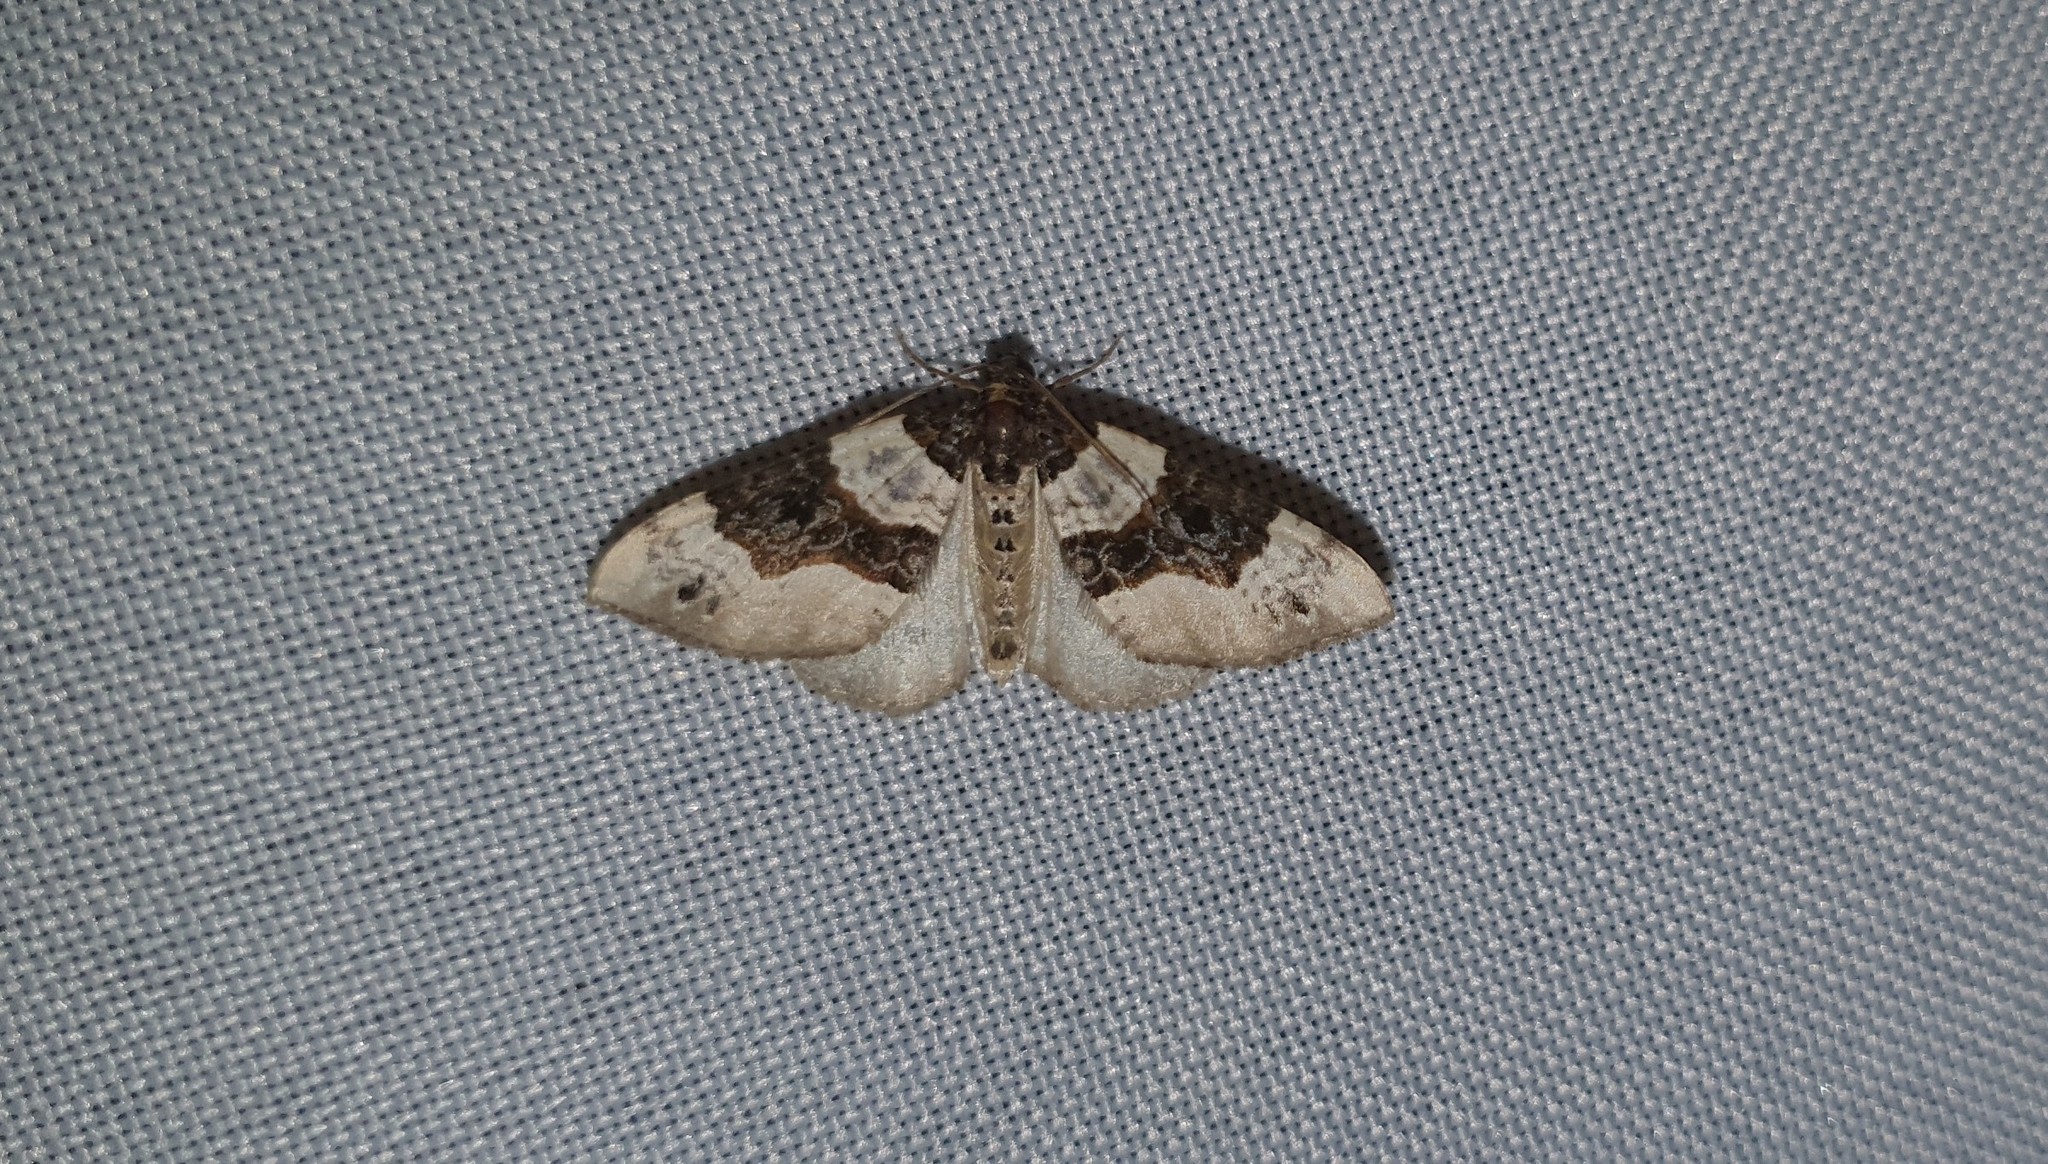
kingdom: Animalia
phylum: Arthropoda
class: Insecta
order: Lepidoptera
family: Geometridae
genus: Cosmorhoe
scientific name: Cosmorhoe ocellata
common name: Purple bar
